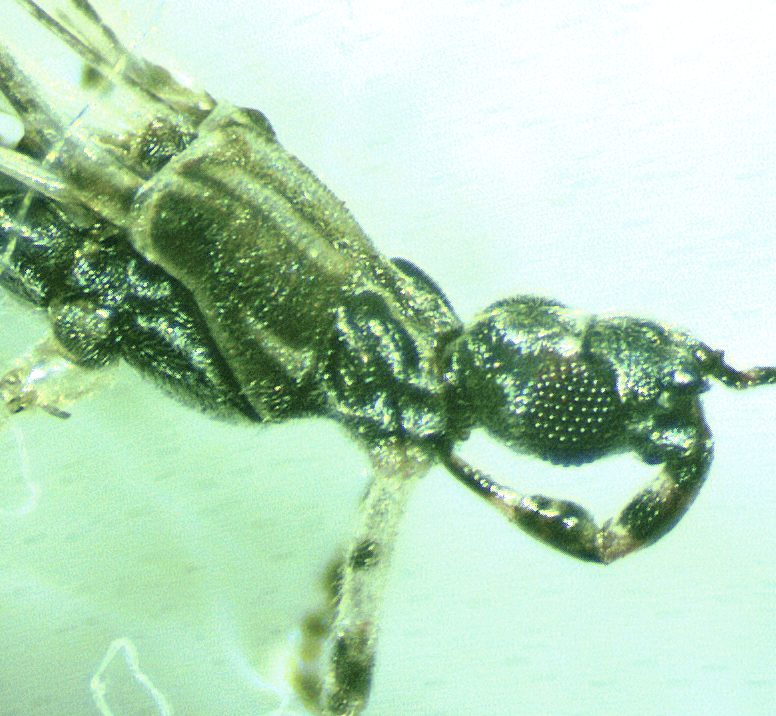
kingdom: Animalia
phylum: Arthropoda
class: Insecta
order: Hemiptera
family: Reduviidae
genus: Empicoris
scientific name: Empicoris rubromaculatus
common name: Thread-legged bug
